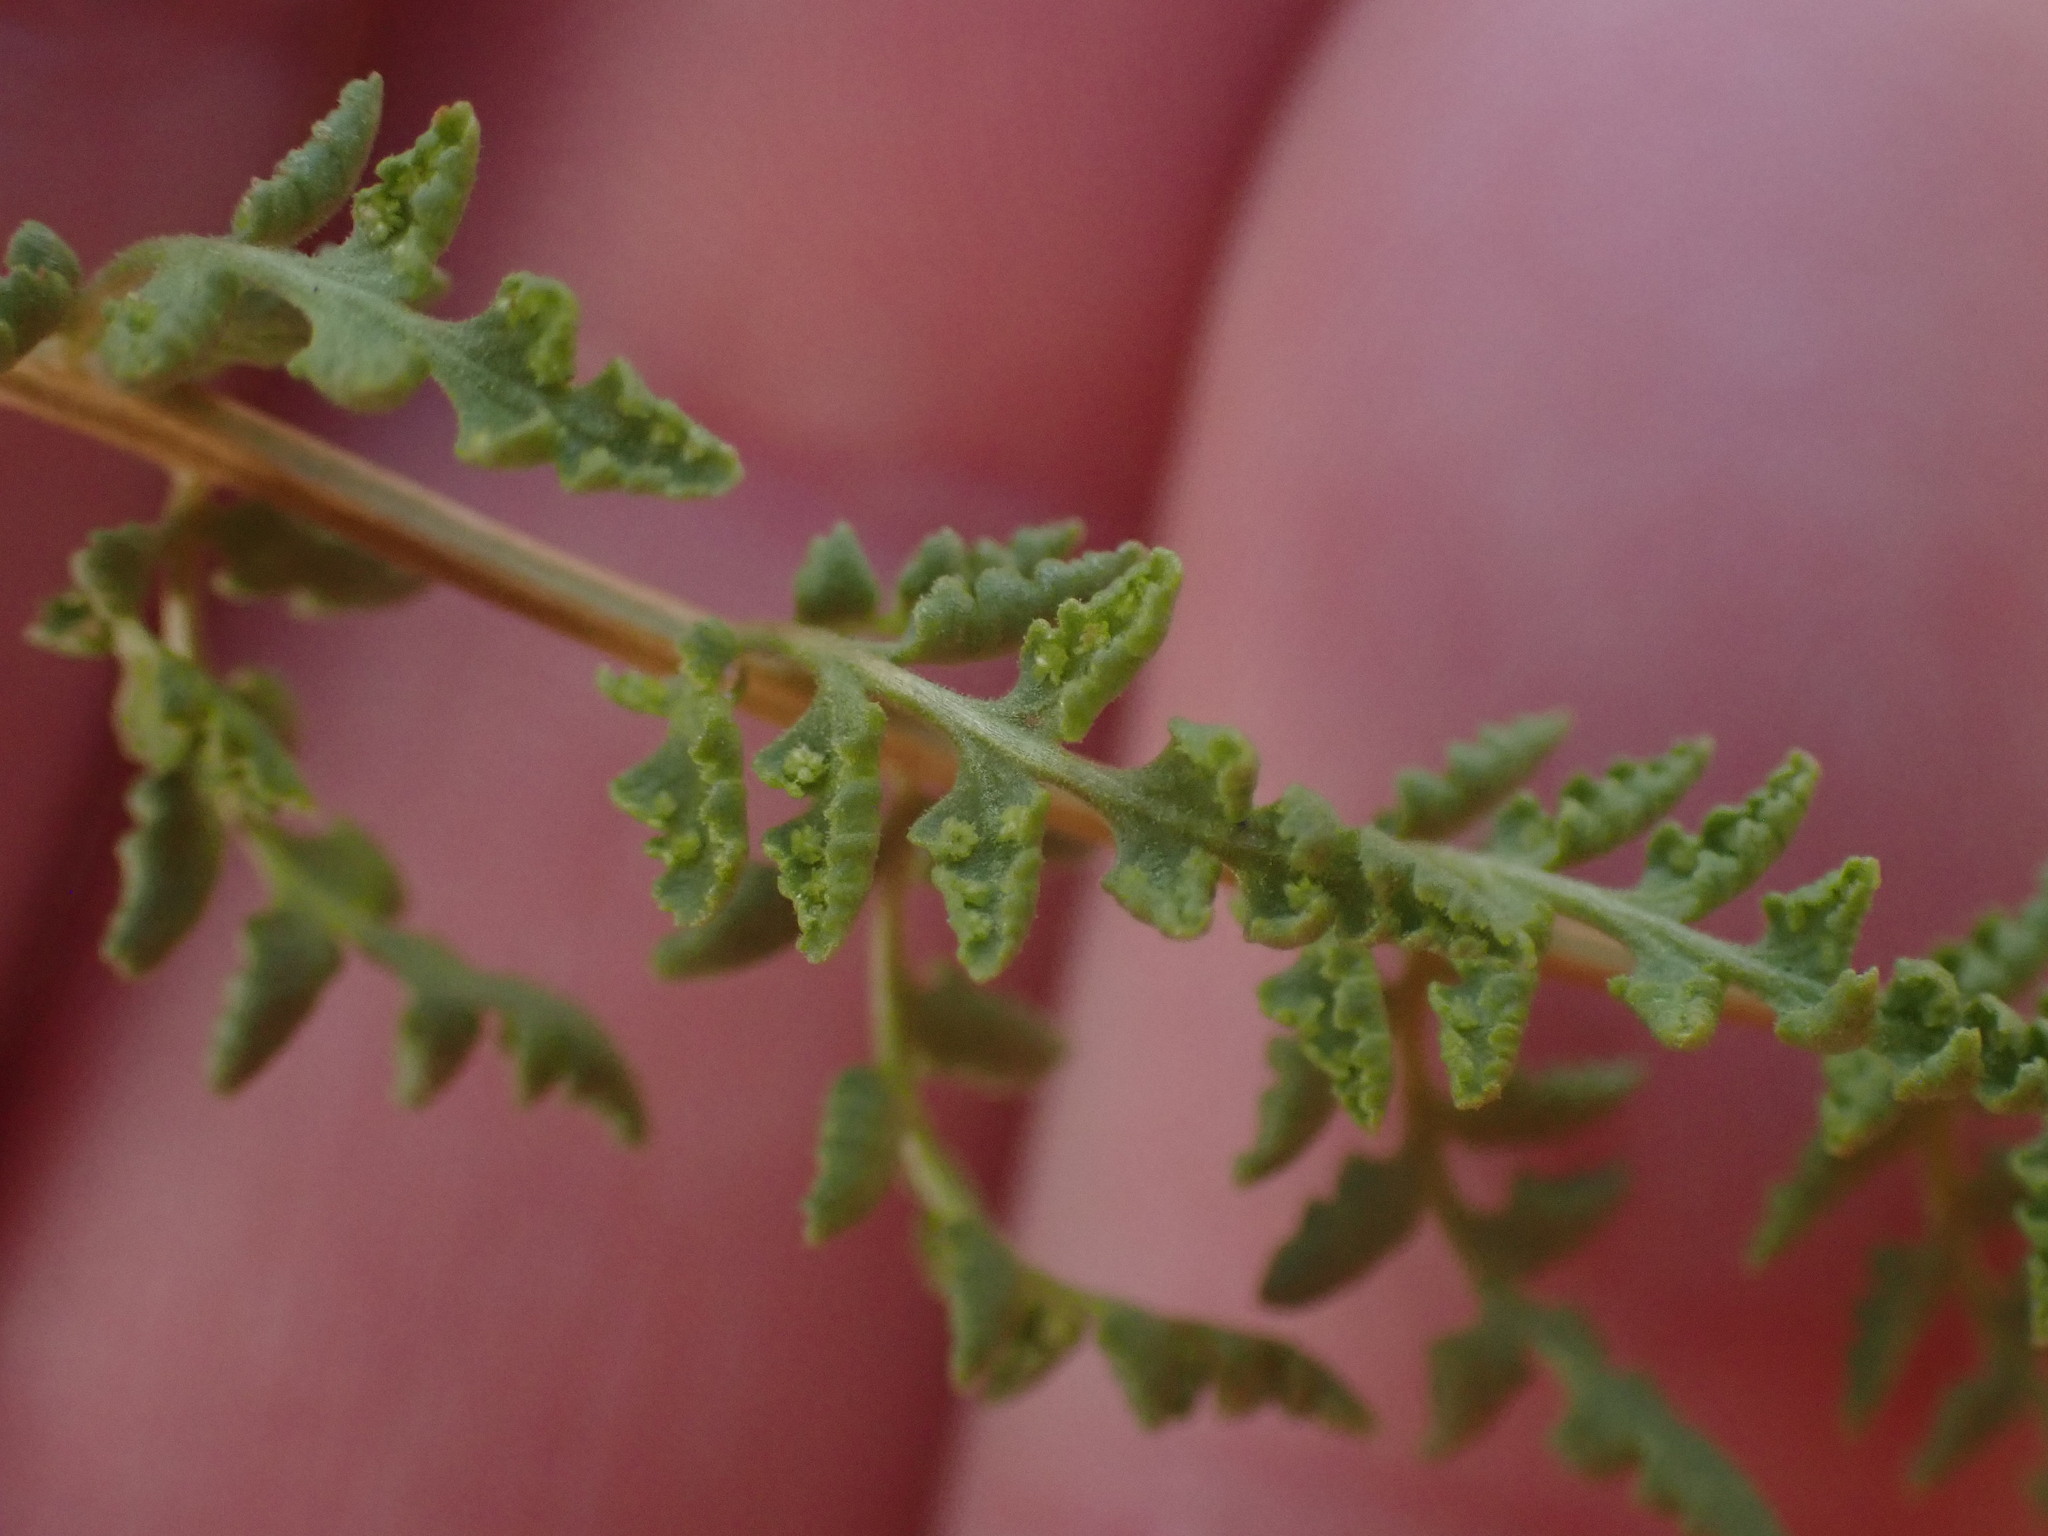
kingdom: Plantae
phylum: Tracheophyta
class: Polypodiopsida
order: Polypodiales
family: Woodsiaceae
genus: Physematium
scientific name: Physematium oreganum
